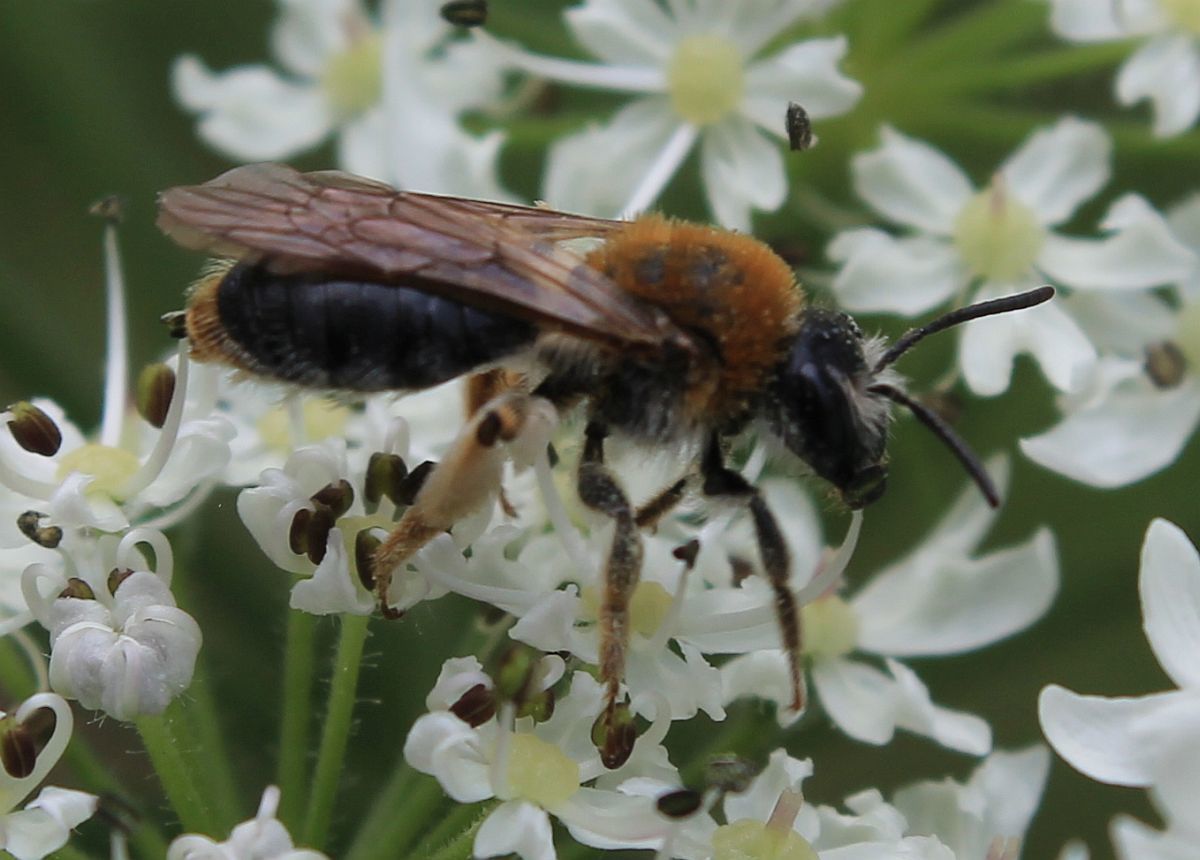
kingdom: Animalia
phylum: Arthropoda
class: Insecta
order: Hymenoptera
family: Andrenidae
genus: Andrena
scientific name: Andrena haemorrhoa
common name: Early mining bee
